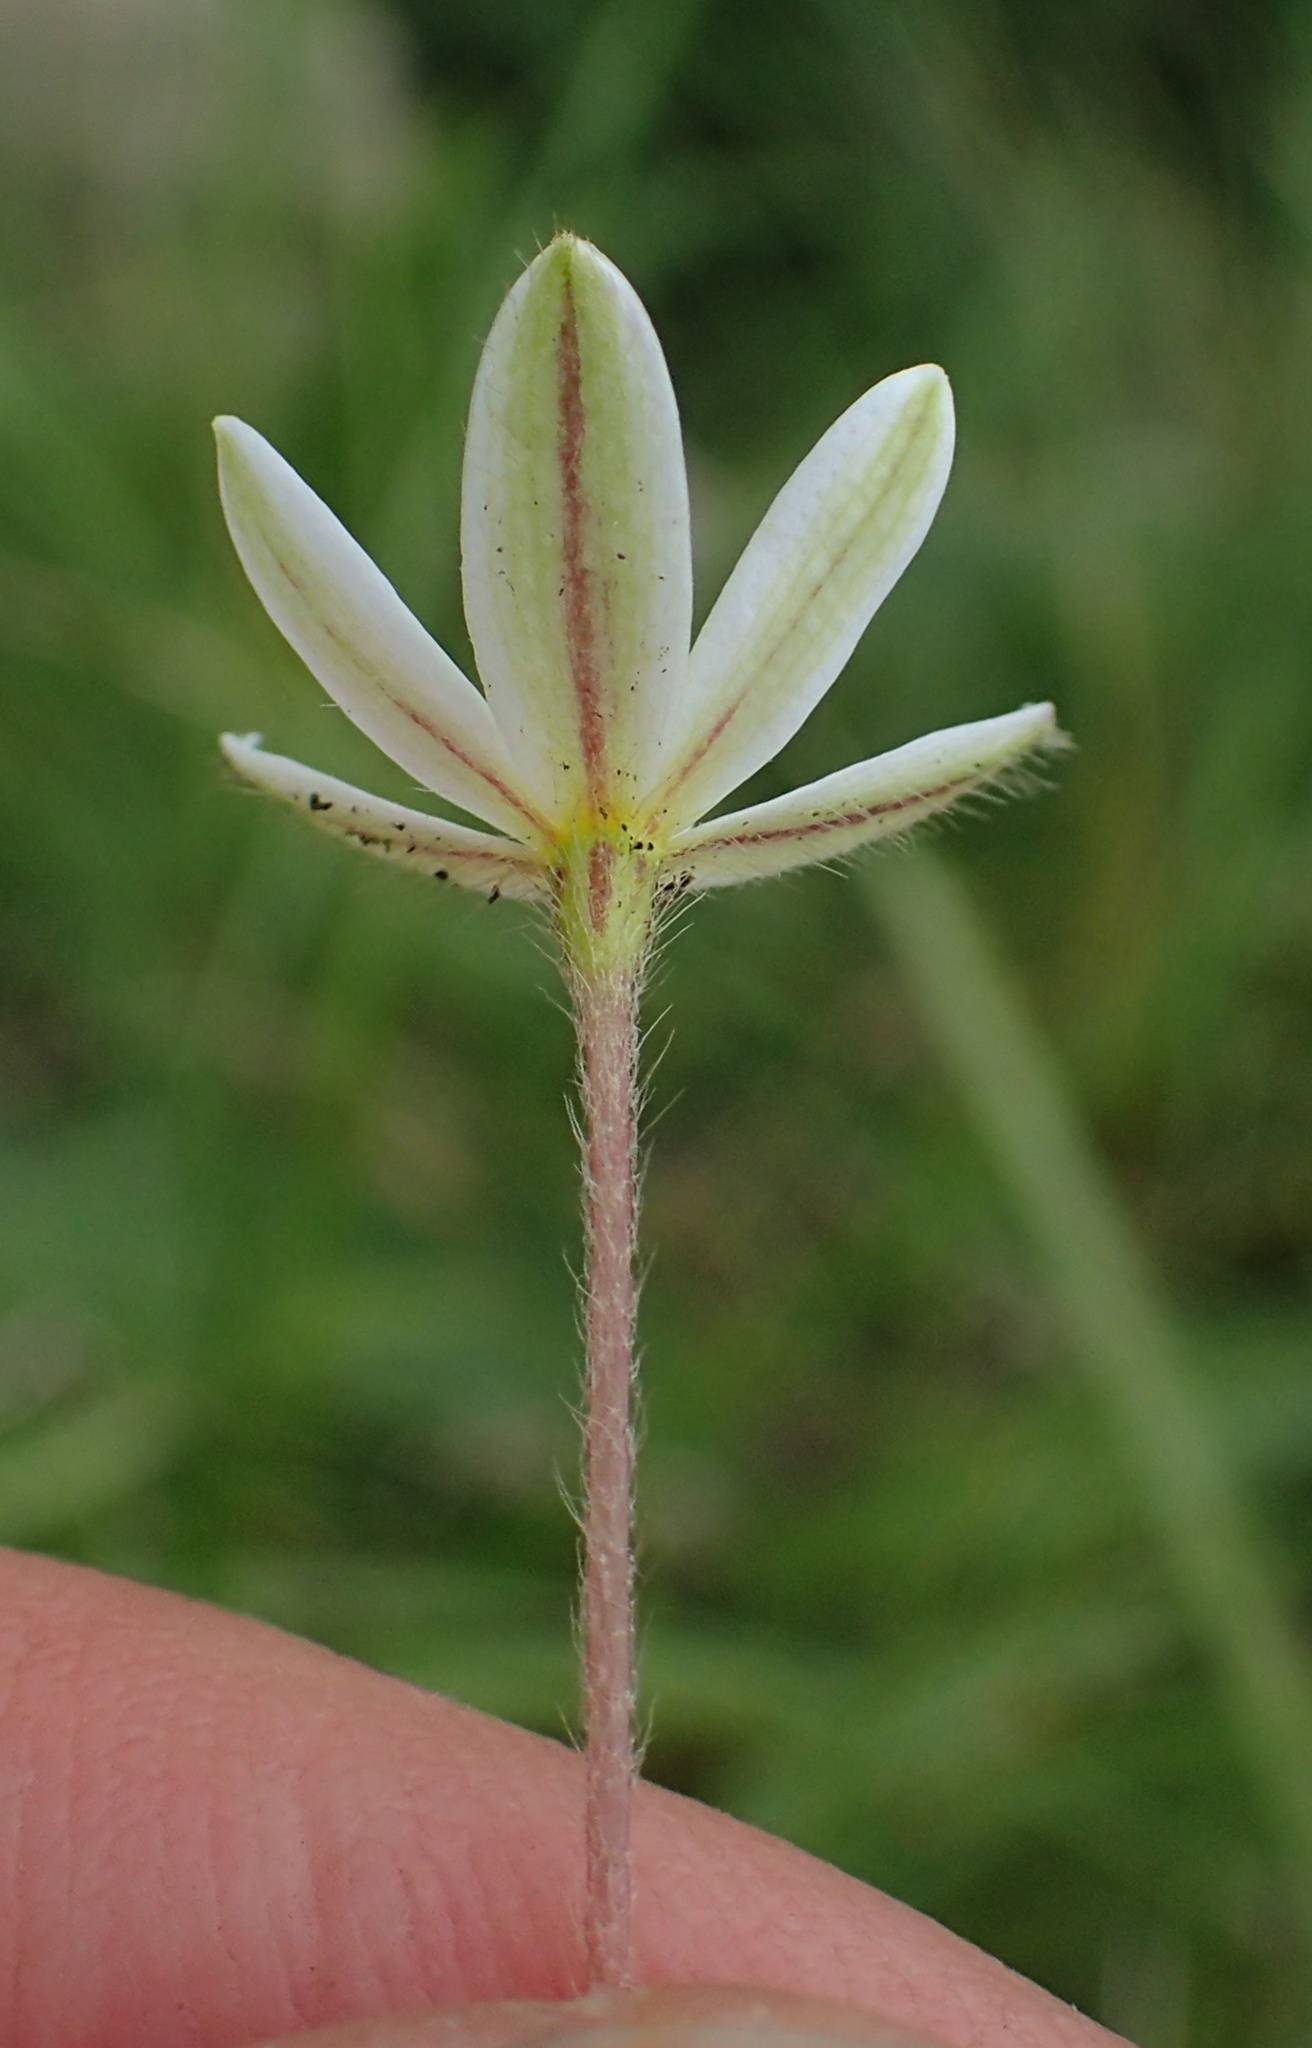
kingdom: Plantae
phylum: Tracheophyta
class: Liliopsida
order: Asparagales
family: Hypoxidaceae
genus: Hypoxis
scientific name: Hypoxis parvula
